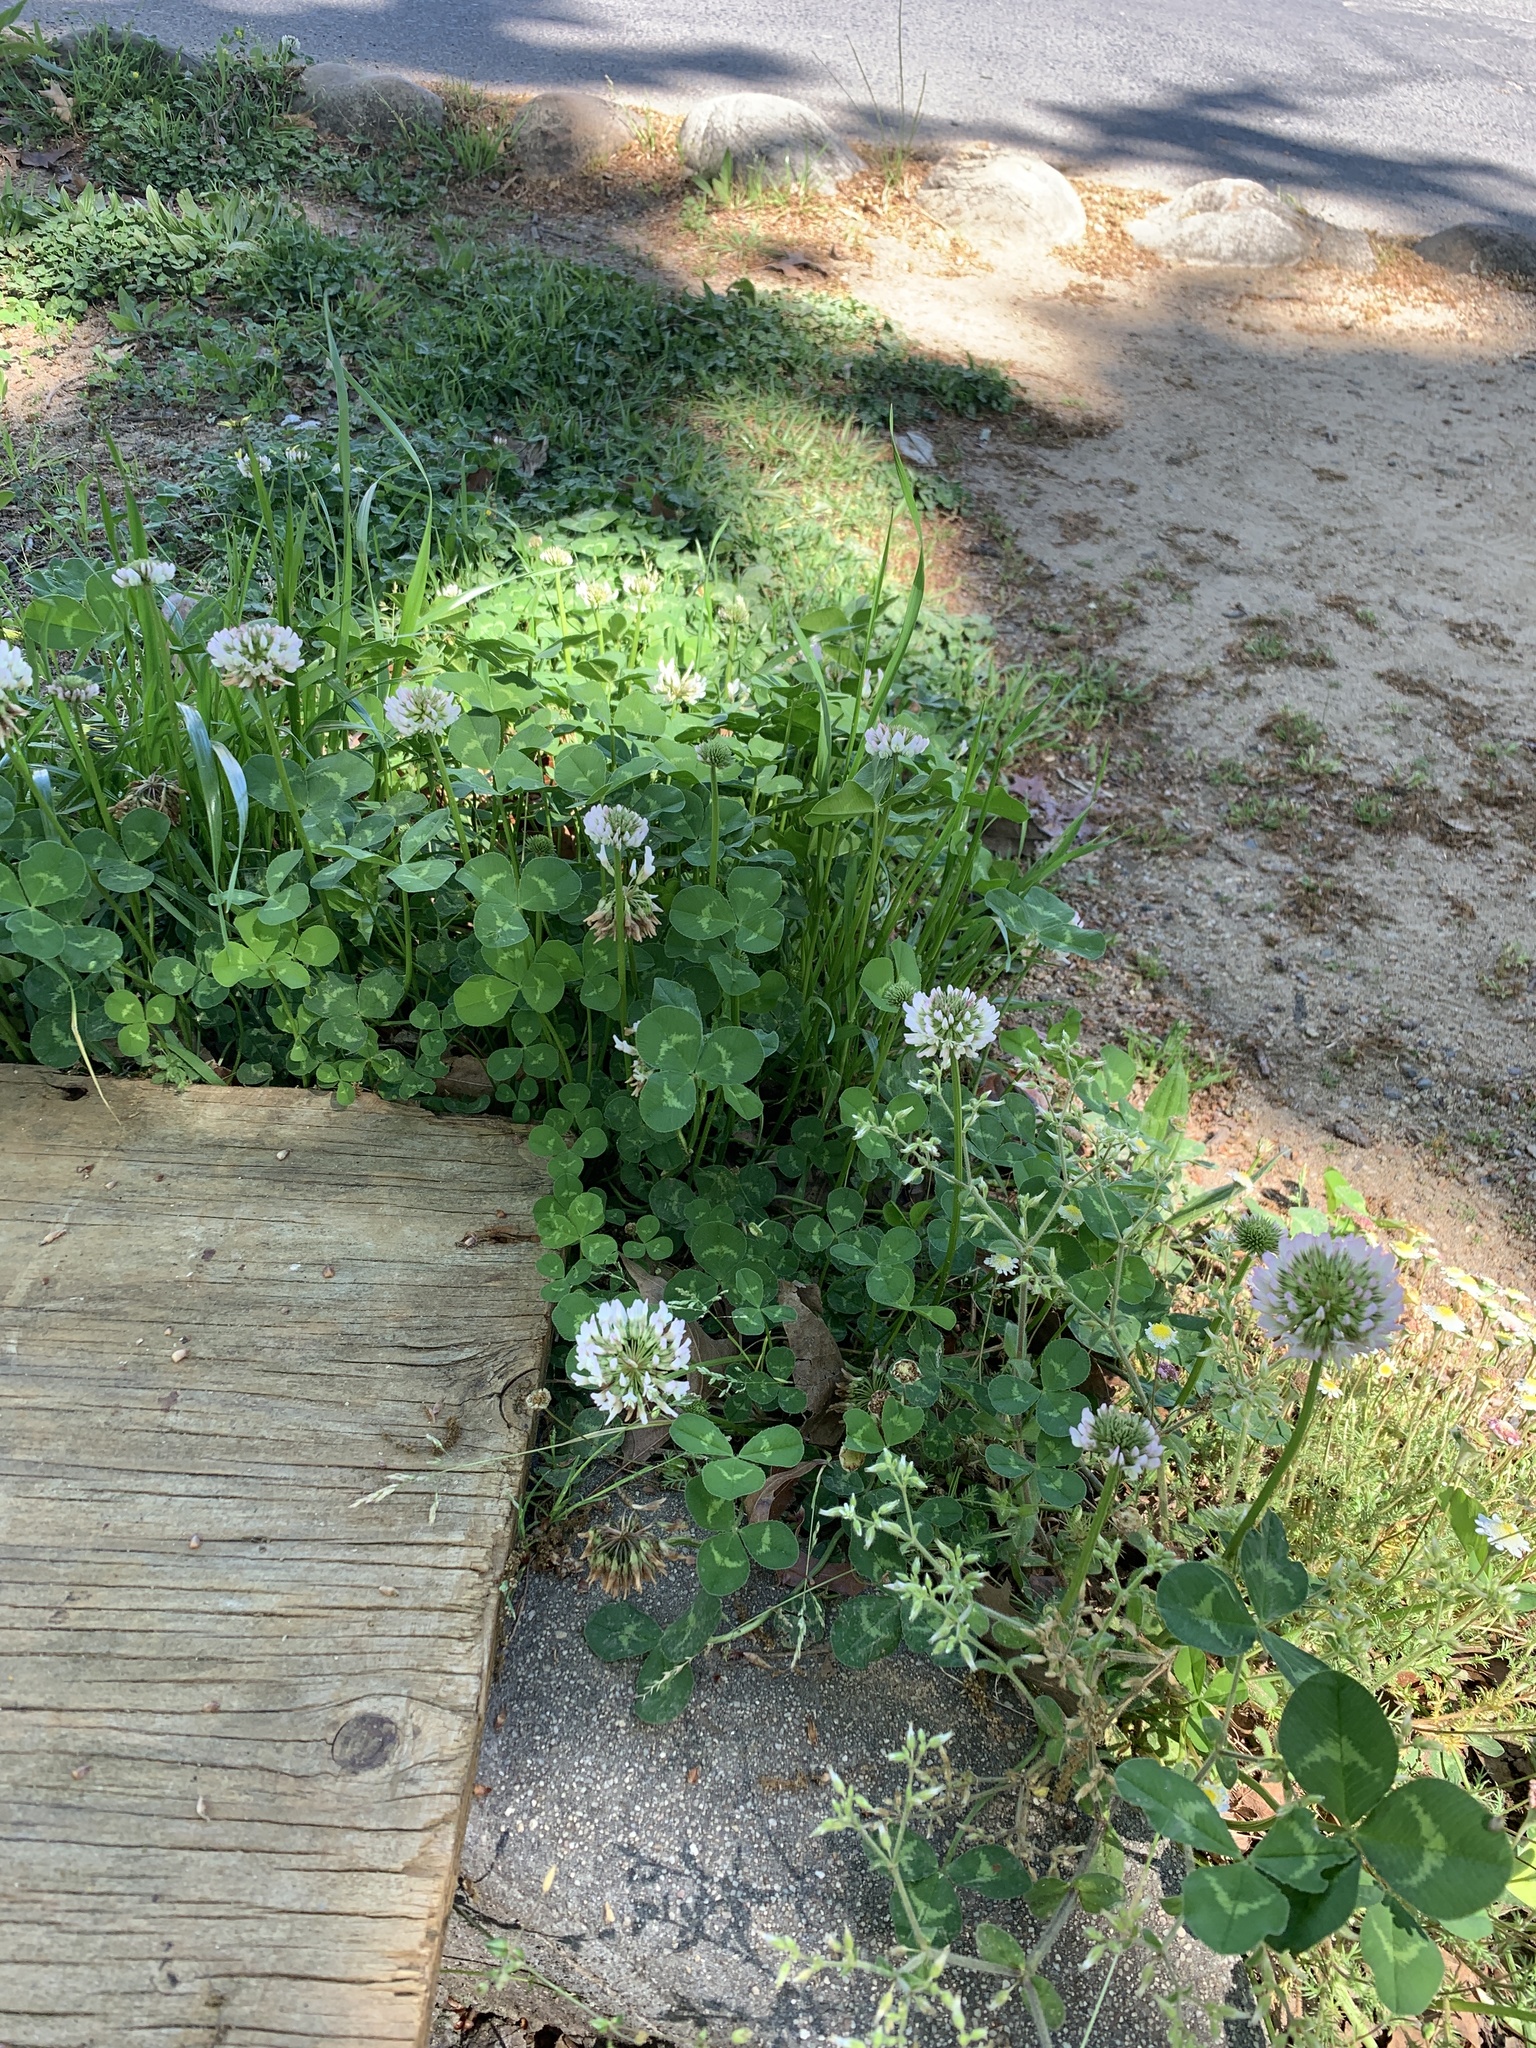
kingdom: Plantae
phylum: Tracheophyta
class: Magnoliopsida
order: Fabales
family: Fabaceae
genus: Trifolium
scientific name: Trifolium repens
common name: White clover
